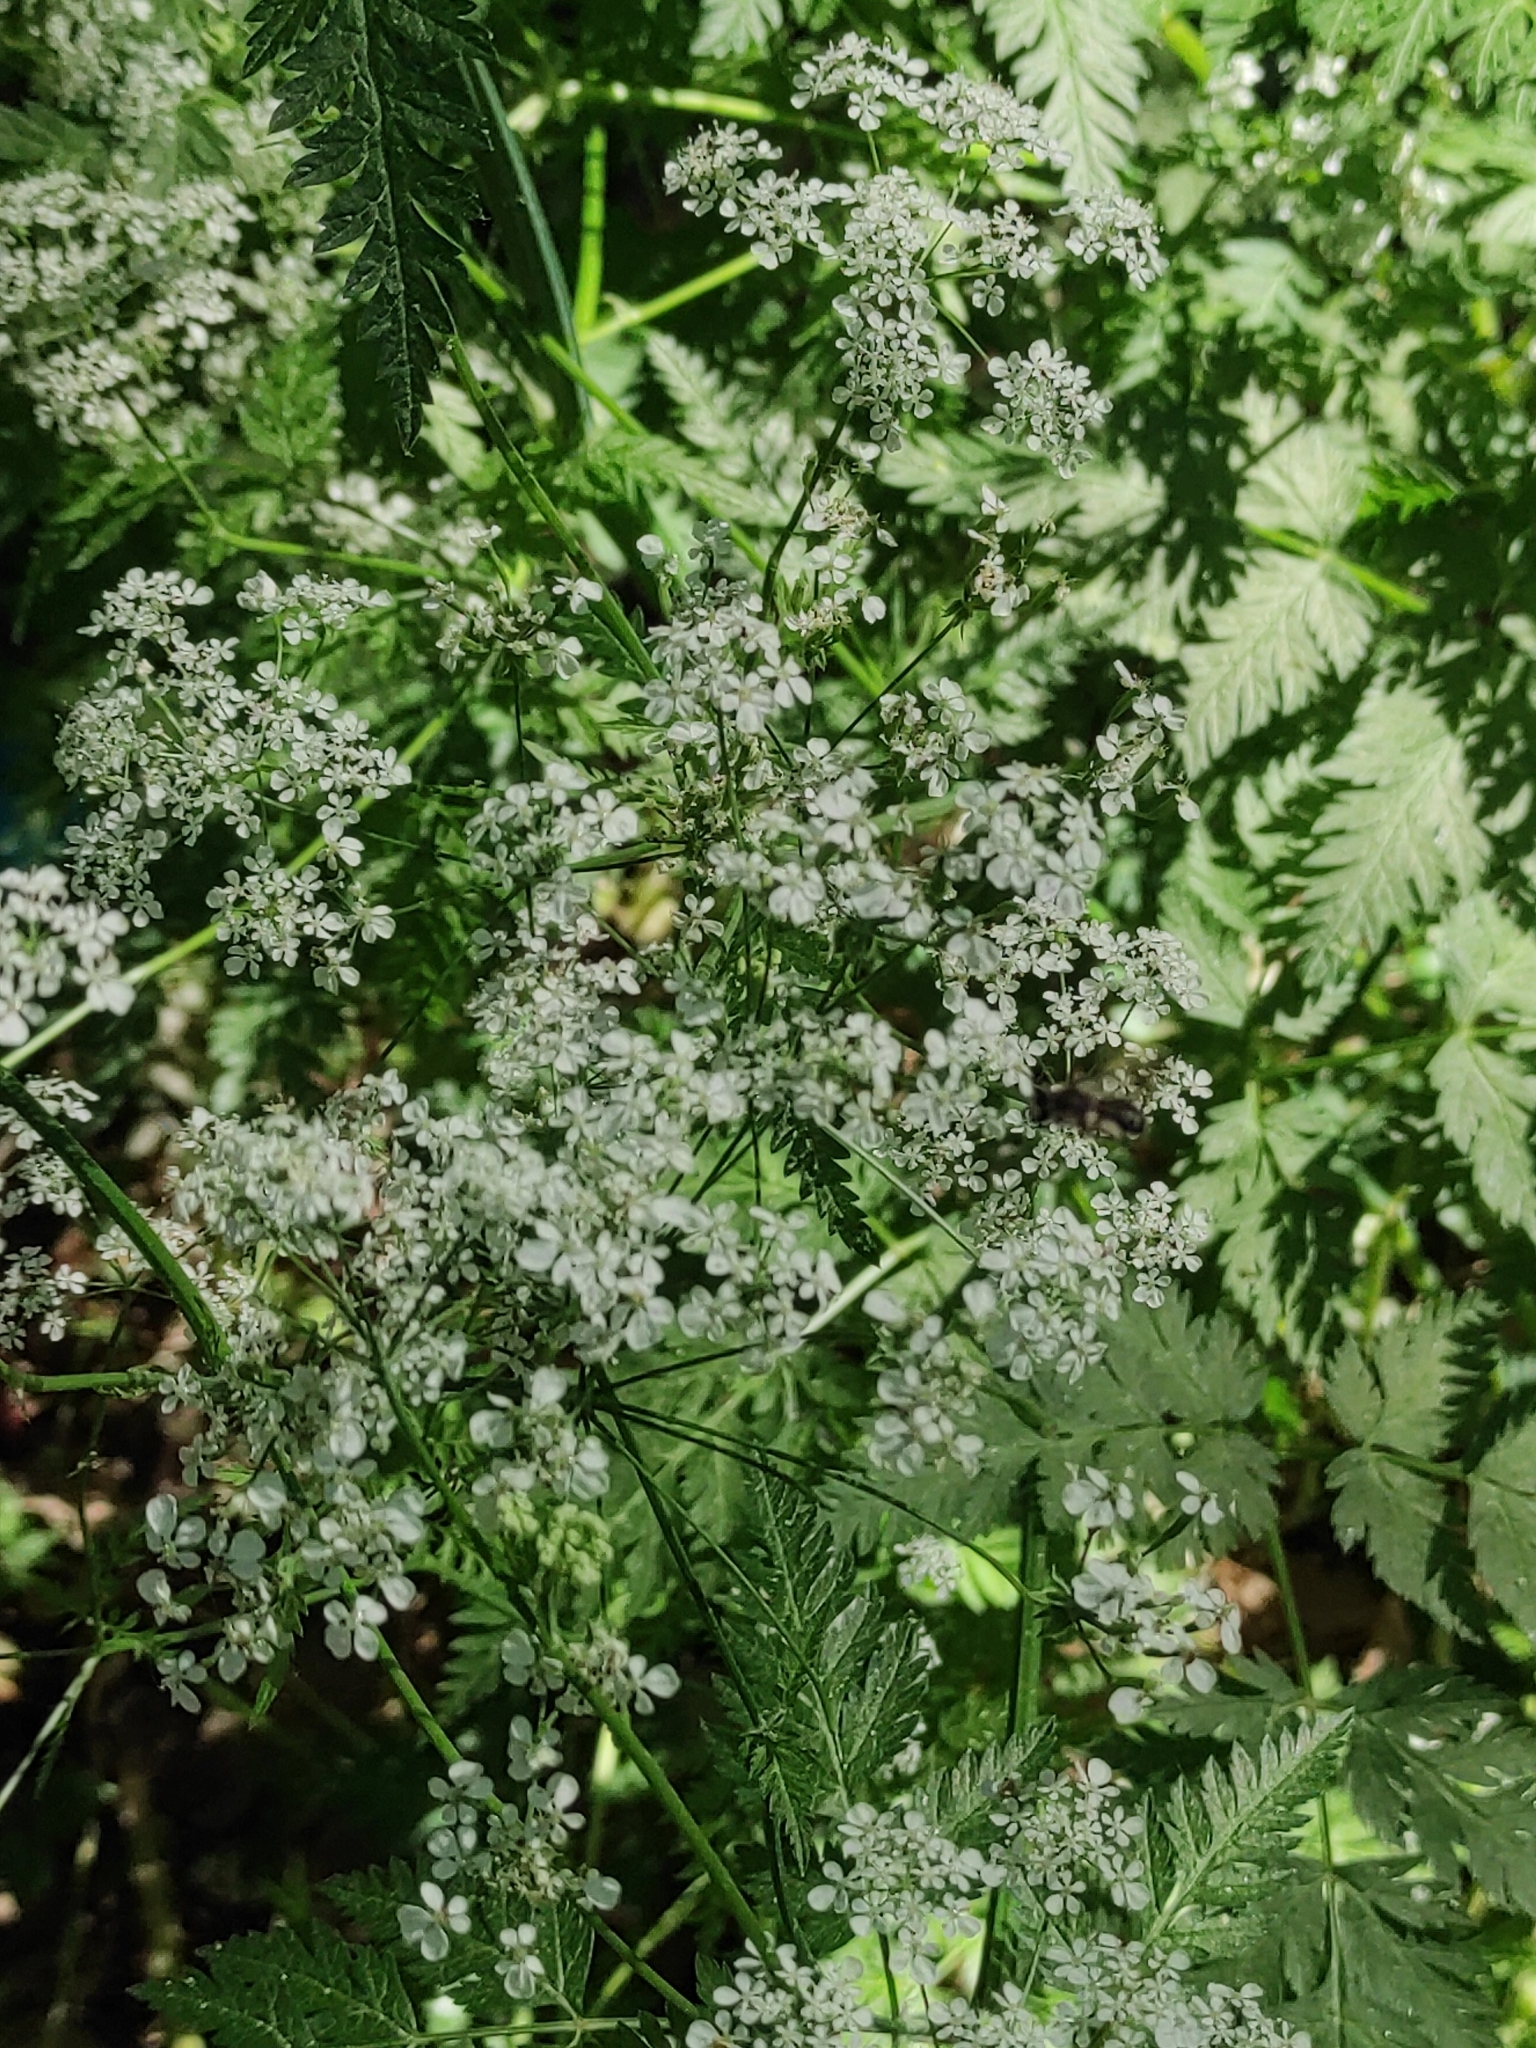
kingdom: Plantae
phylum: Tracheophyta
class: Magnoliopsida
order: Apiales
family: Apiaceae
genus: Anthriscus
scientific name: Anthriscus sylvestris
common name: Cow parsley
